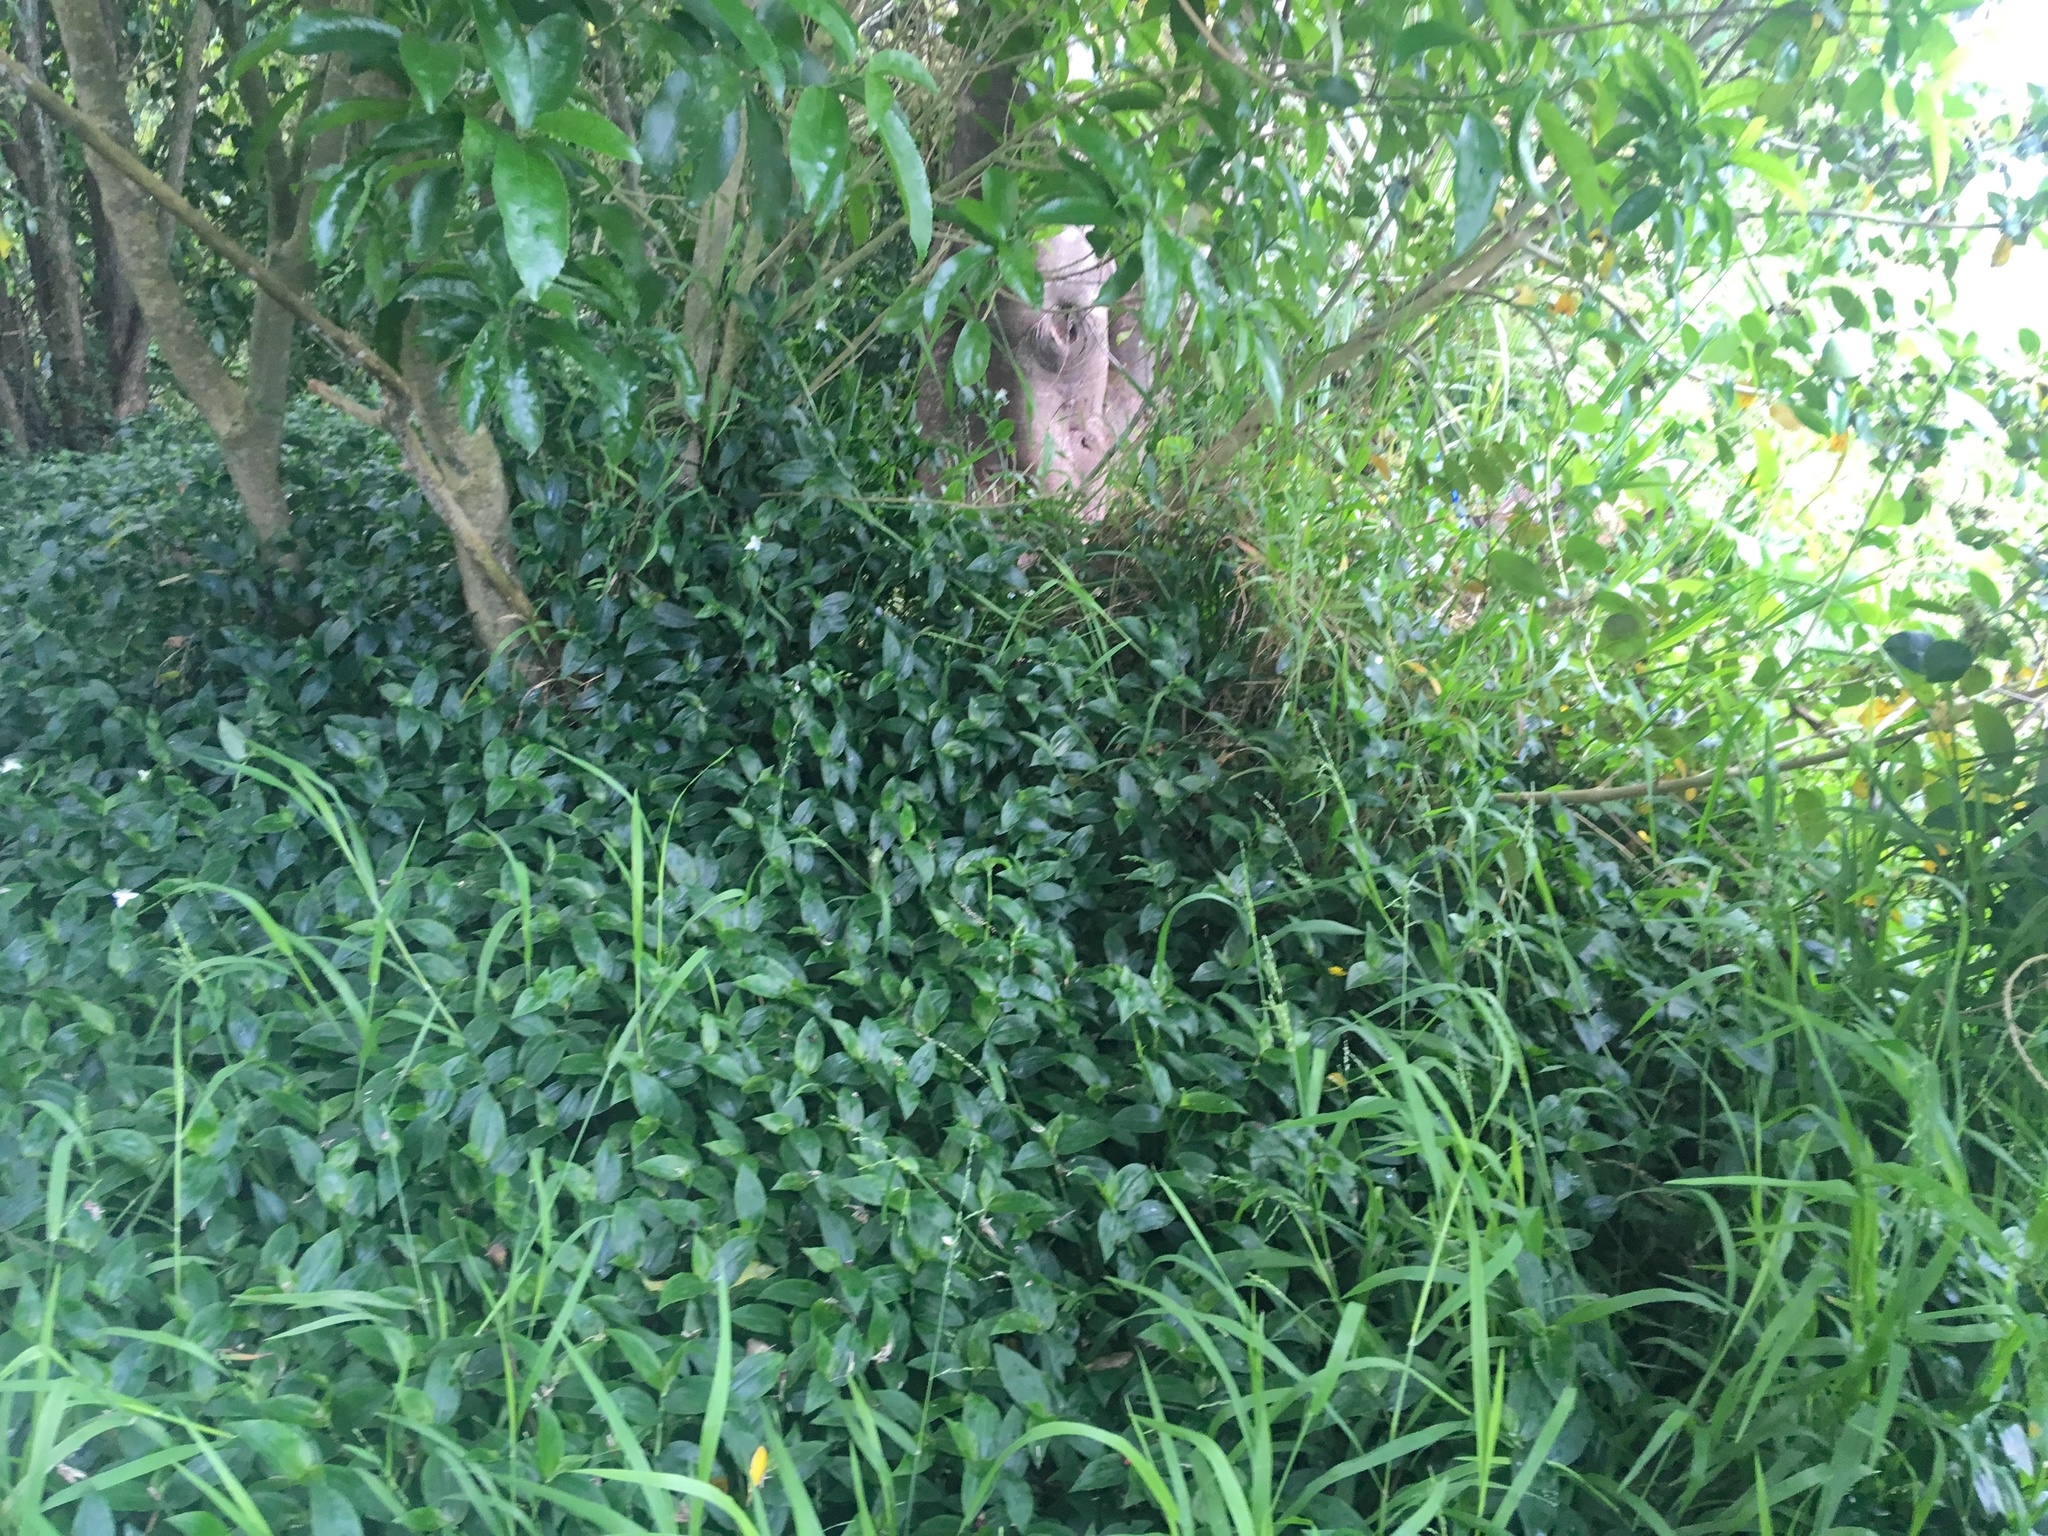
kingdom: Plantae
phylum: Tracheophyta
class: Liliopsida
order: Commelinales
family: Commelinaceae
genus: Tradescantia
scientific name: Tradescantia fluminensis
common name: Wandering-jew
